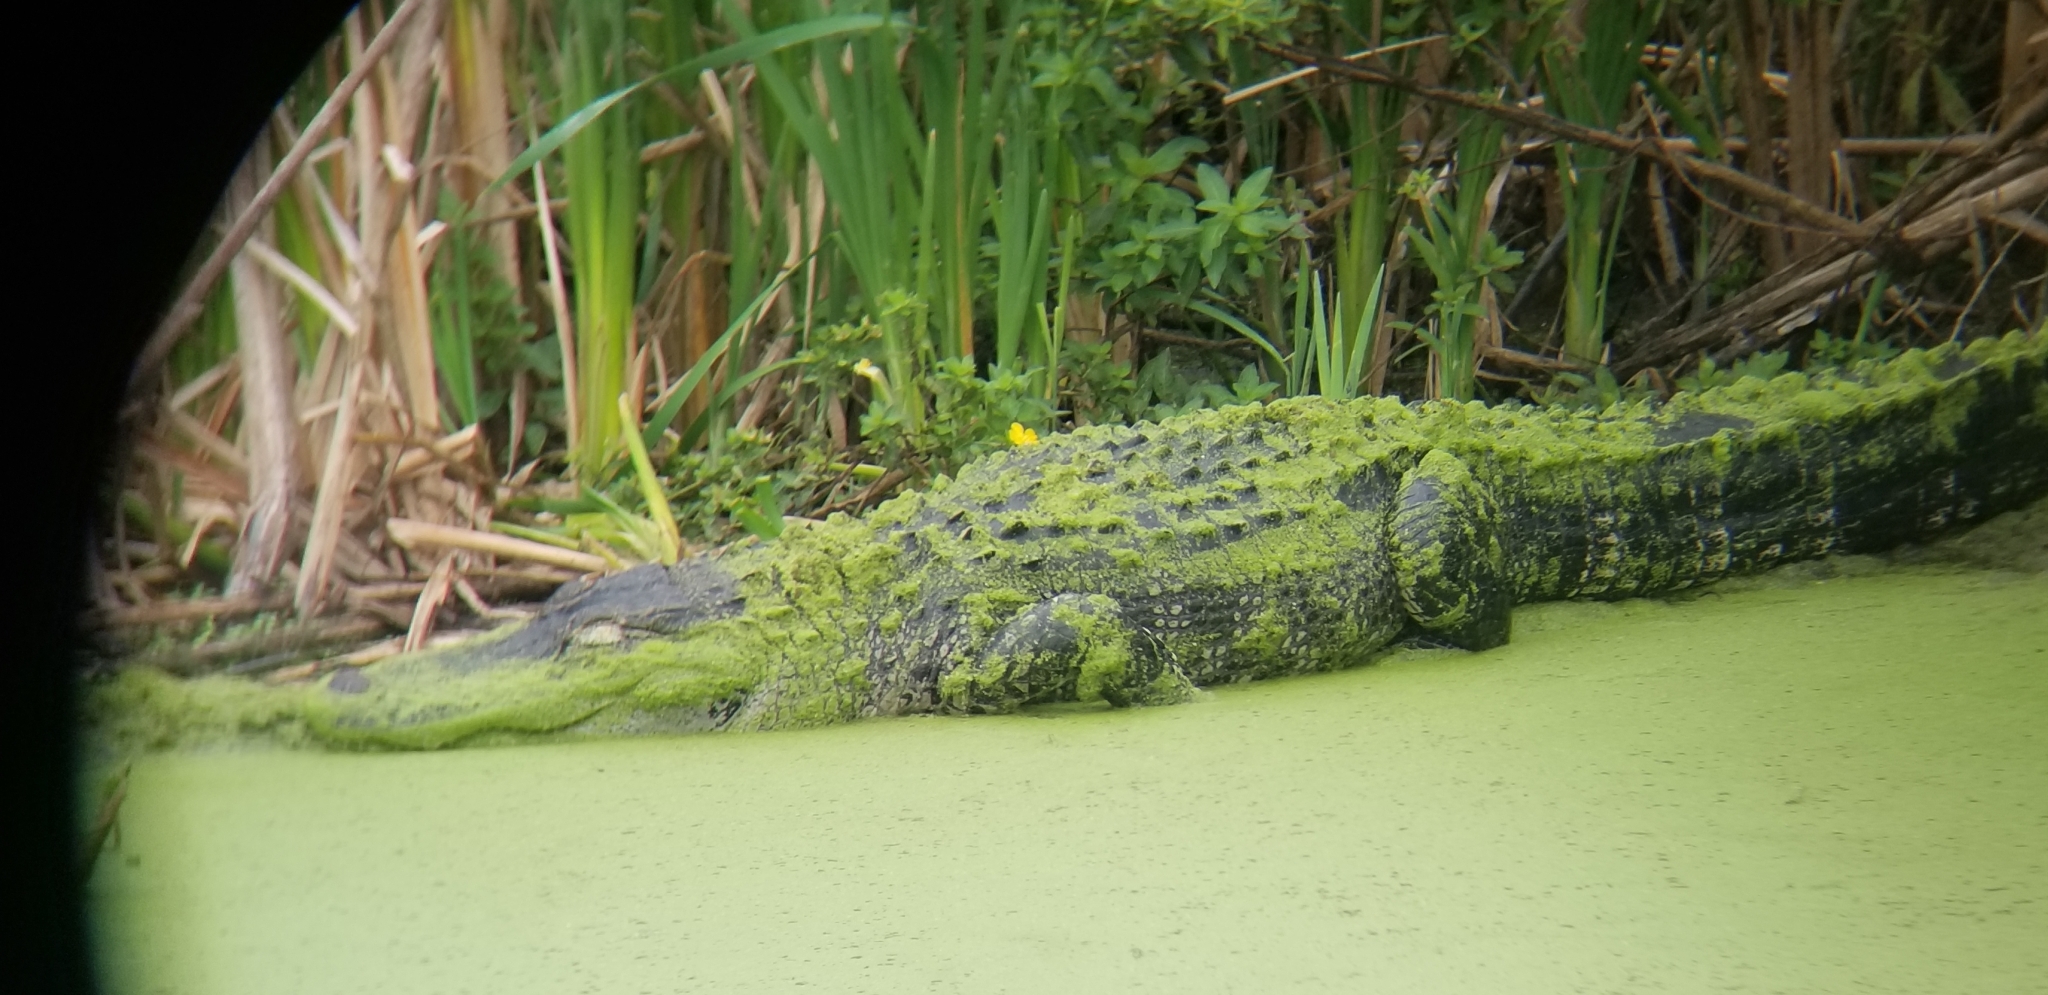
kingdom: Animalia
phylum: Chordata
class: Crocodylia
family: Alligatoridae
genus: Alligator
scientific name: Alligator mississippiensis
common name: American alligator
